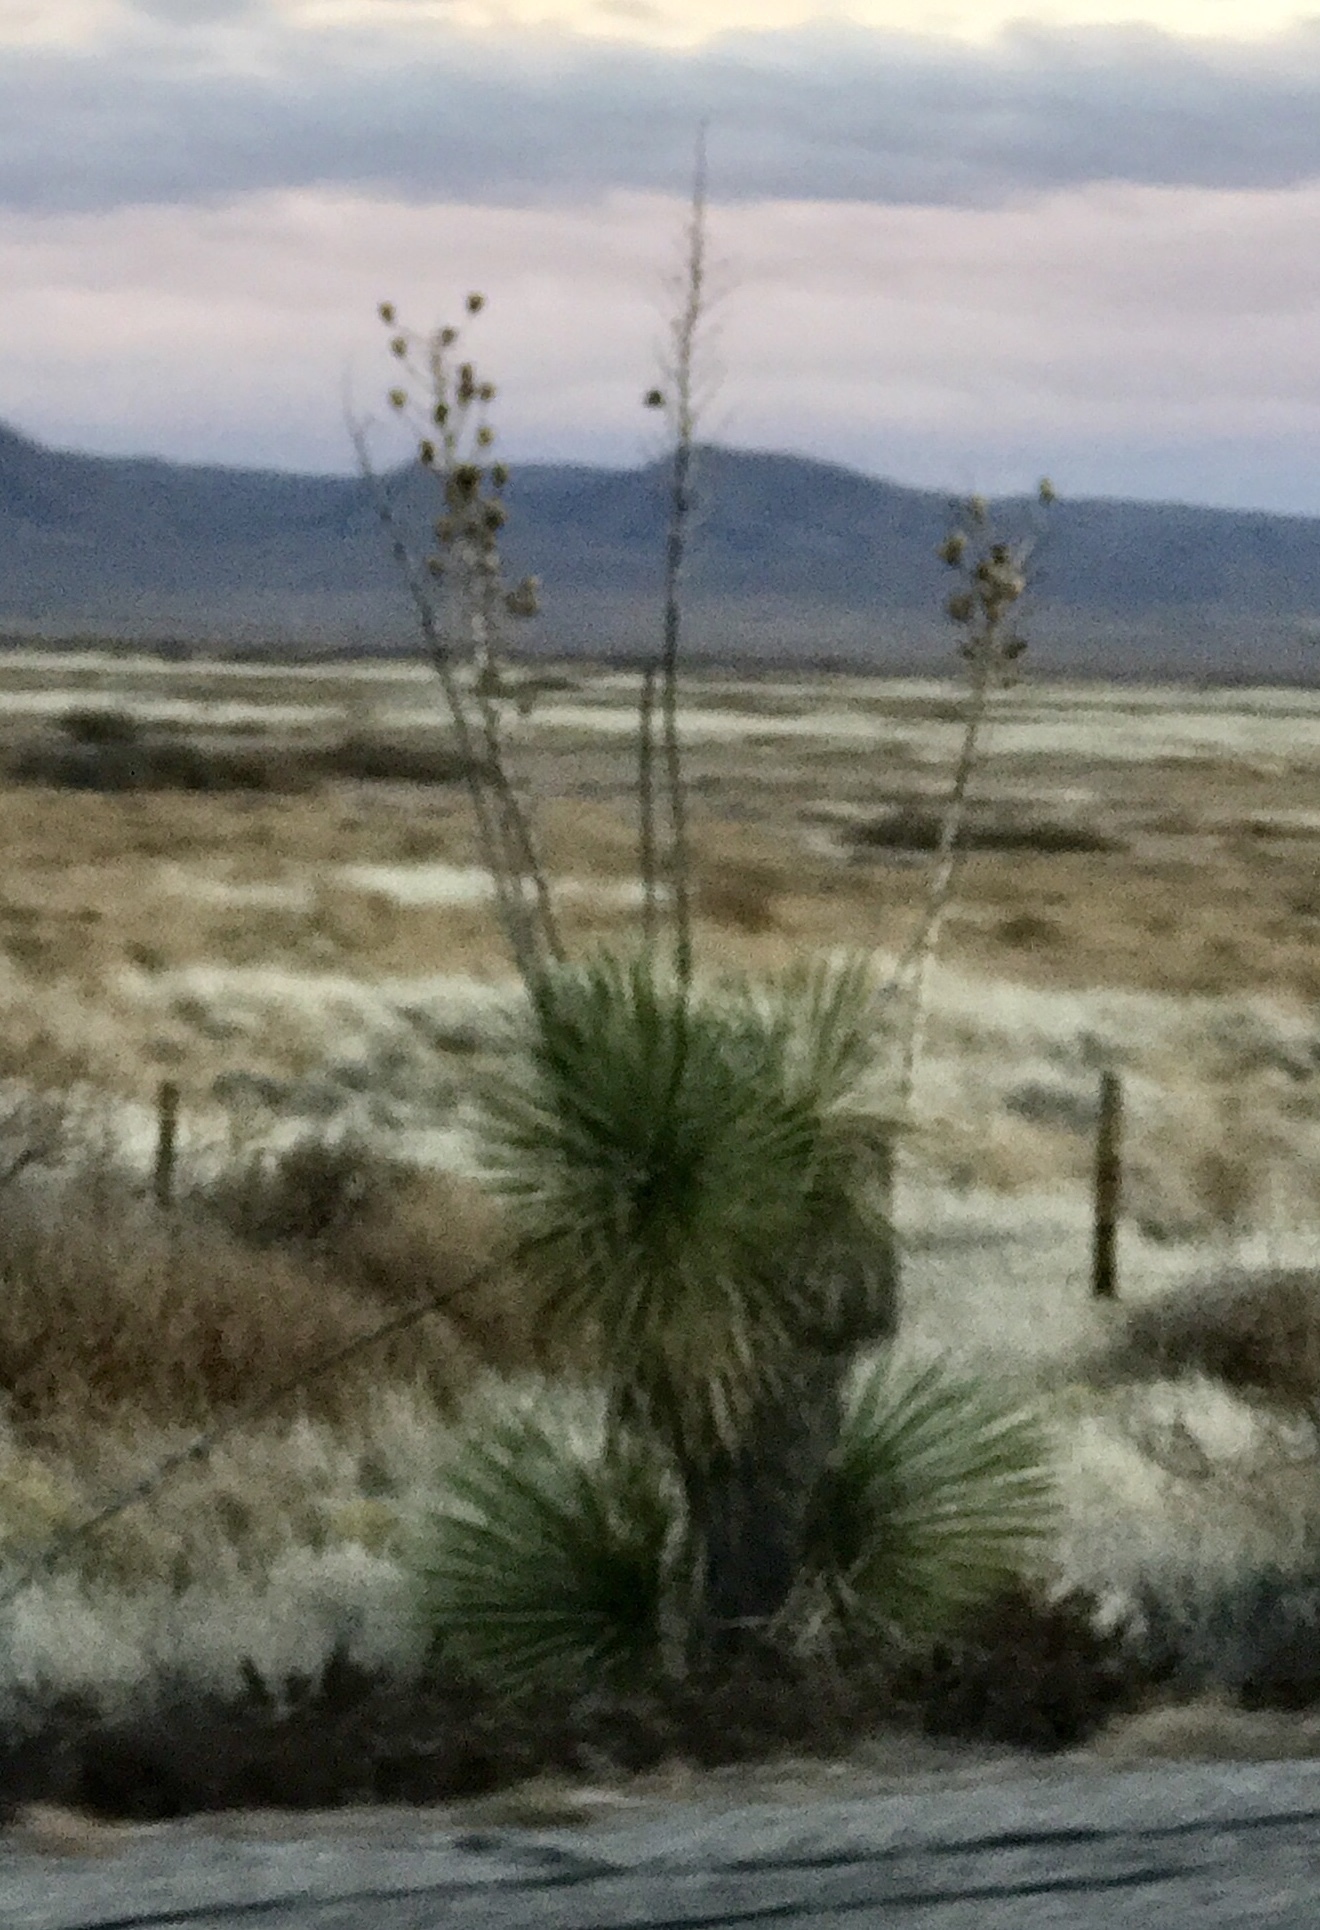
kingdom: Plantae
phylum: Tracheophyta
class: Liliopsida
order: Asparagales
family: Asparagaceae
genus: Yucca
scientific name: Yucca elata
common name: Palmella
